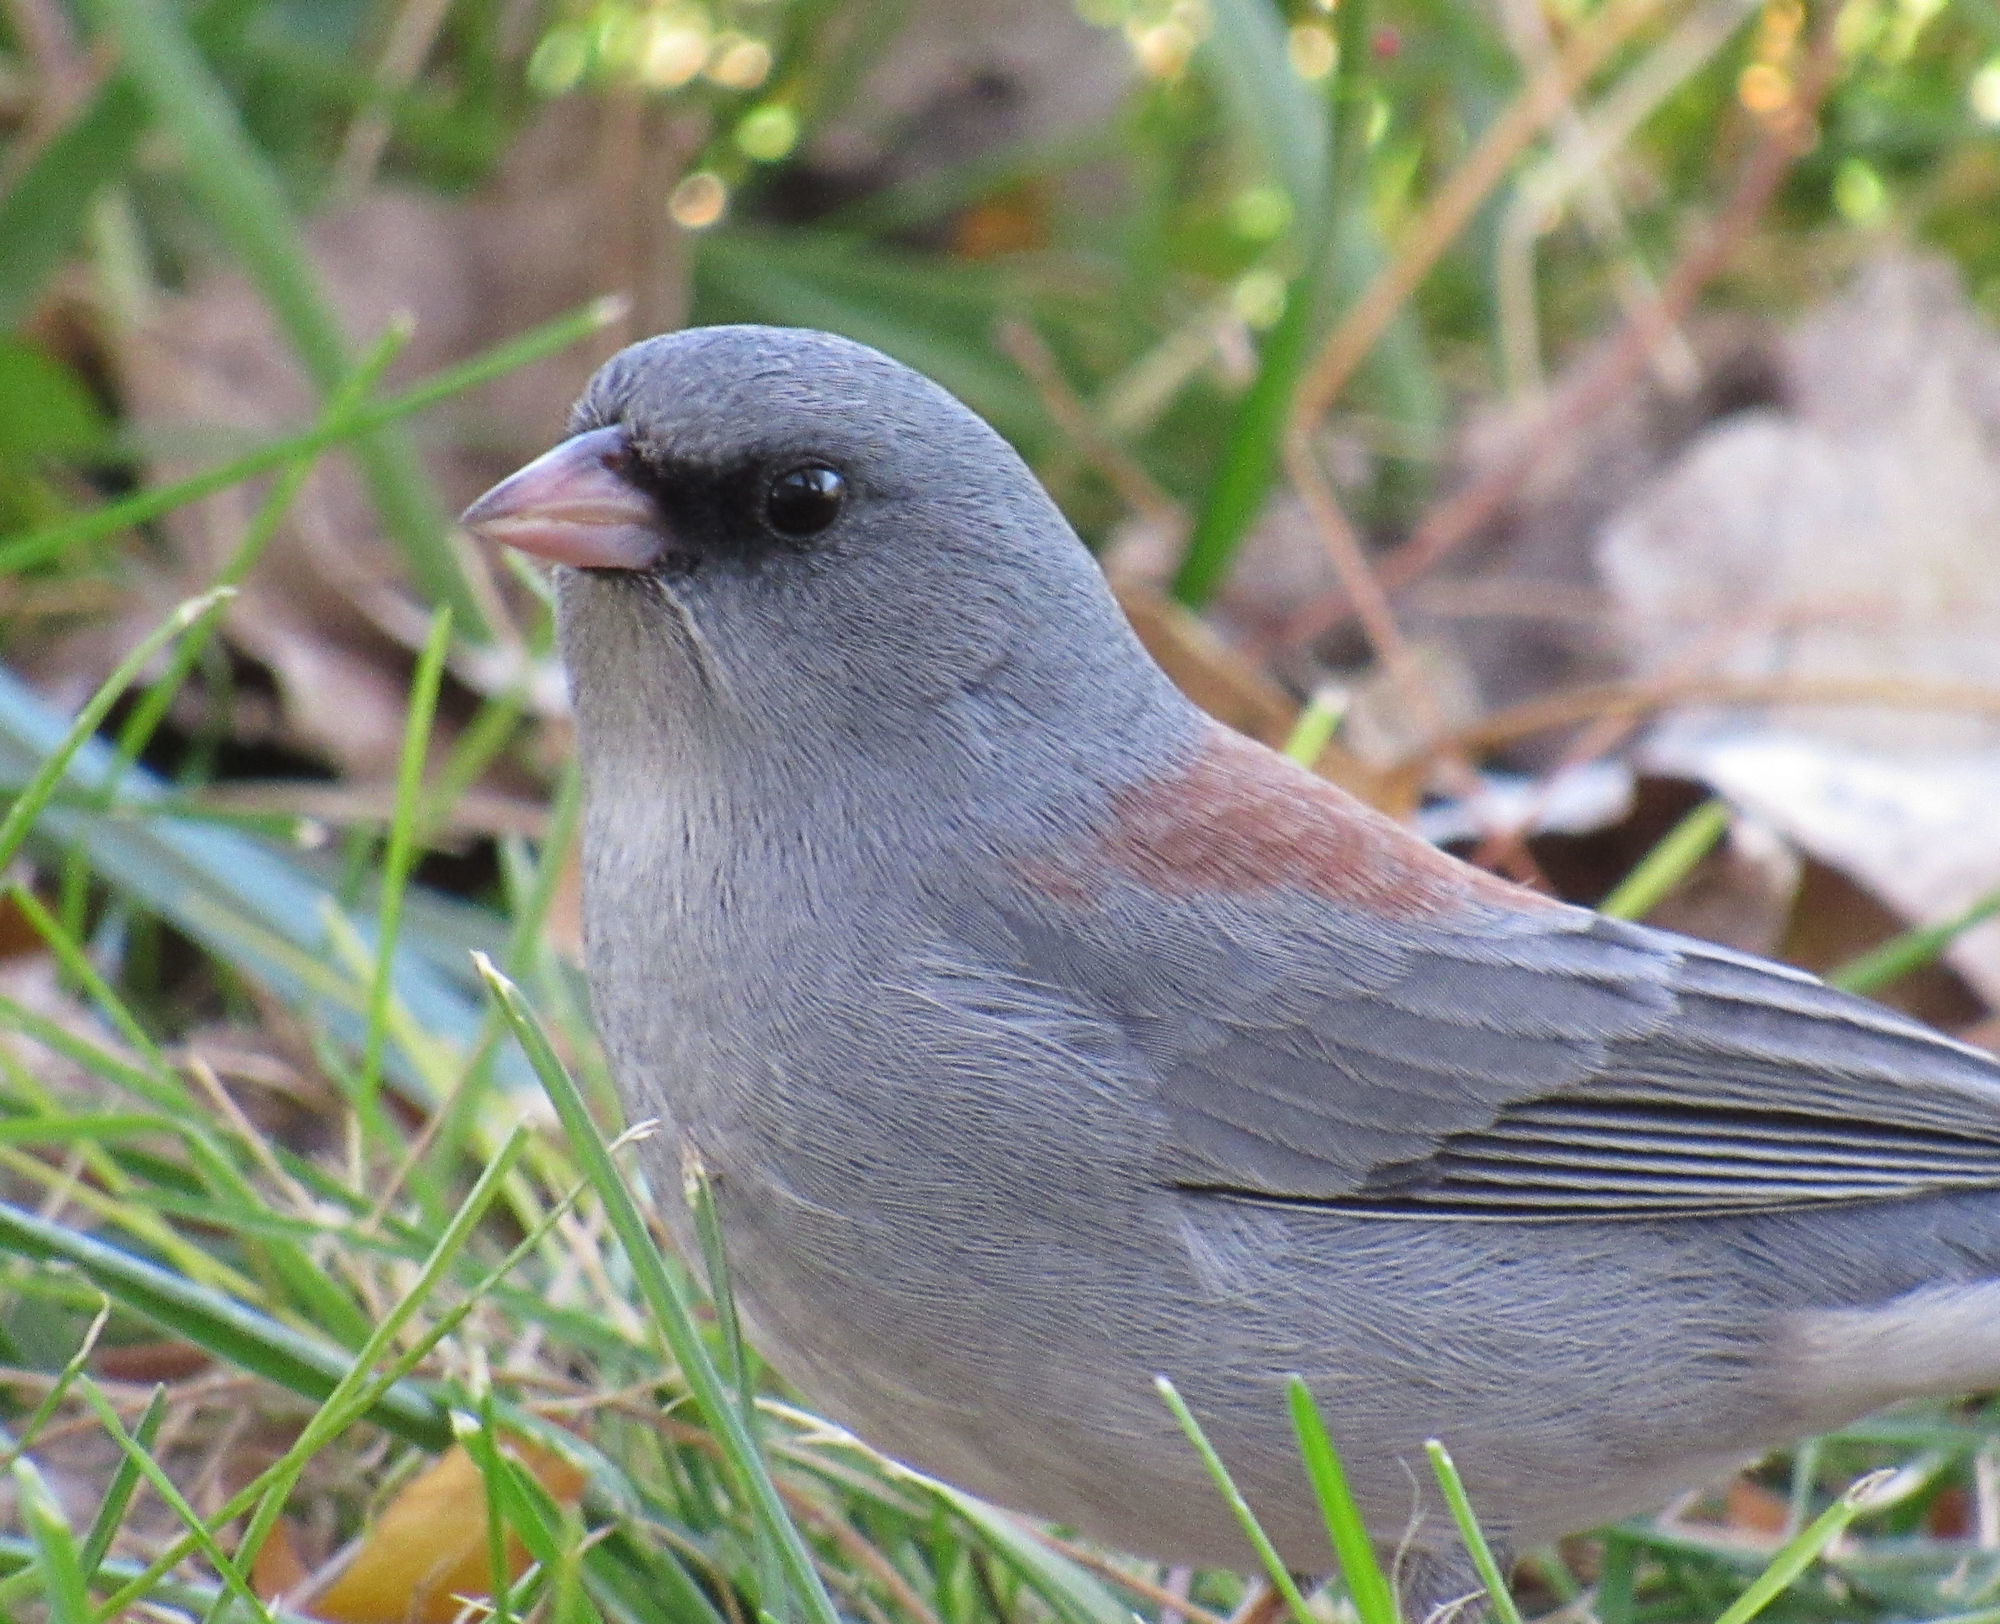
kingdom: Animalia
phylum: Chordata
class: Aves
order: Passeriformes
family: Passerellidae
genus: Junco
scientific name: Junco hyemalis
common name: Dark-eyed junco
